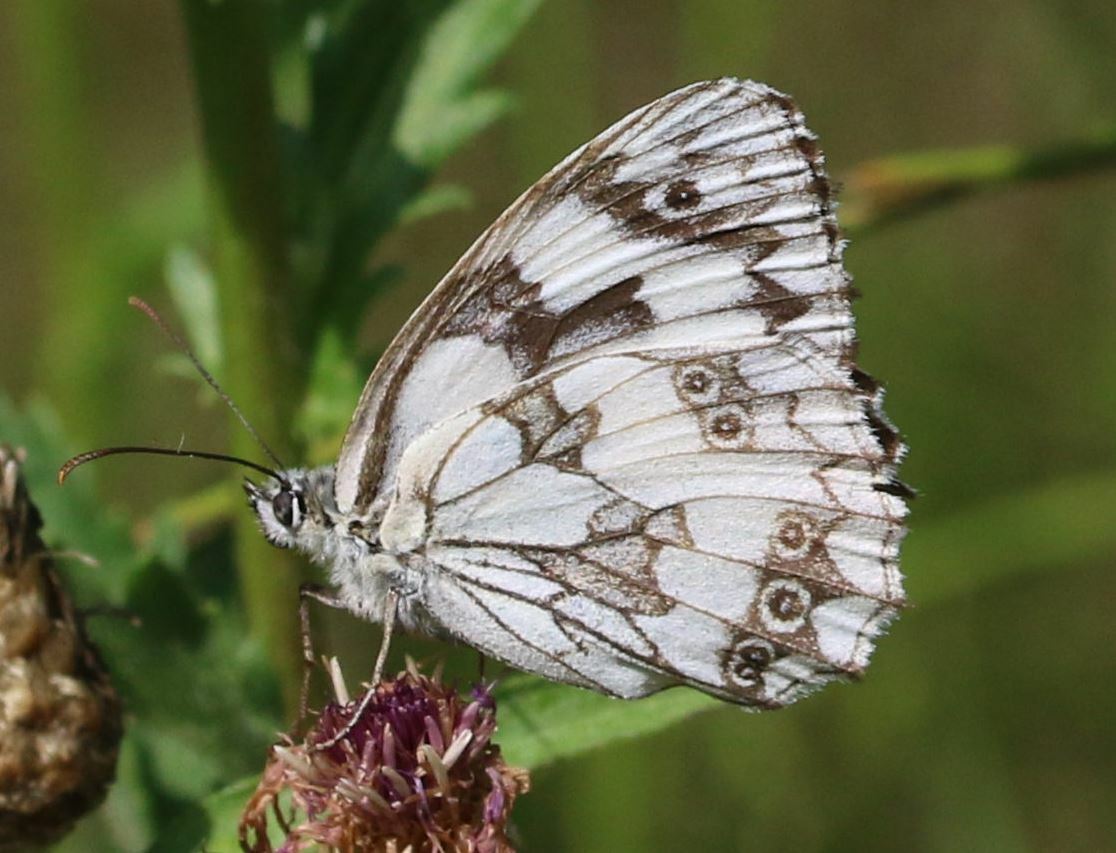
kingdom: Animalia
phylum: Arthropoda
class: Insecta
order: Lepidoptera
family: Nymphalidae
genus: Melanargia
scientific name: Melanargia galathea
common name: Marbled white
